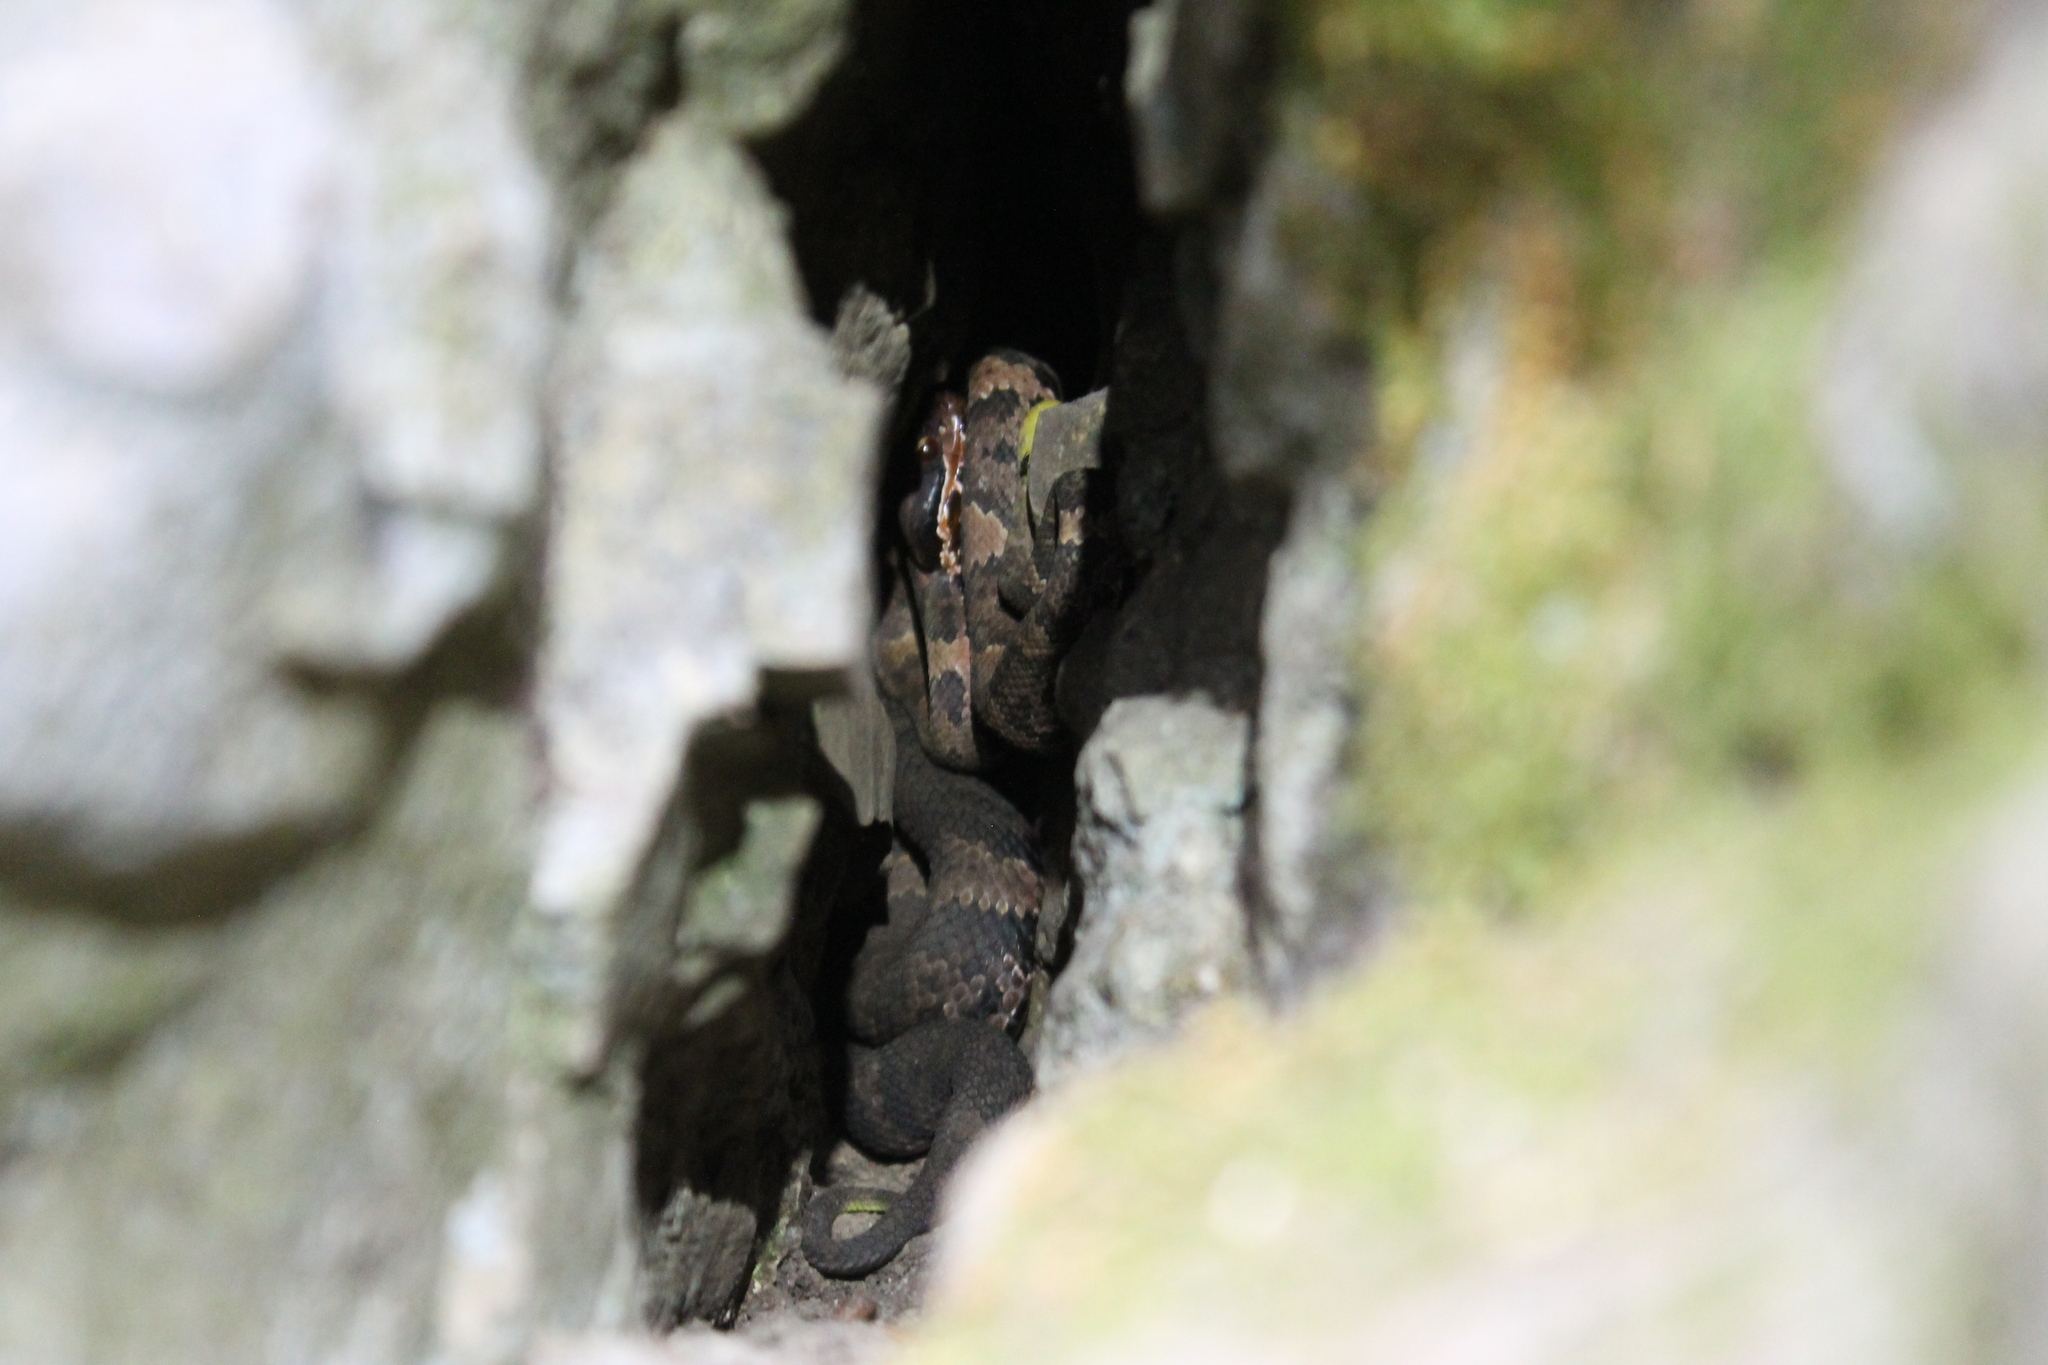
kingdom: Animalia
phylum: Chordata
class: Squamata
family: Viperidae
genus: Agkistrodon
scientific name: Agkistrodon piscivorus
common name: Cottonmouth
